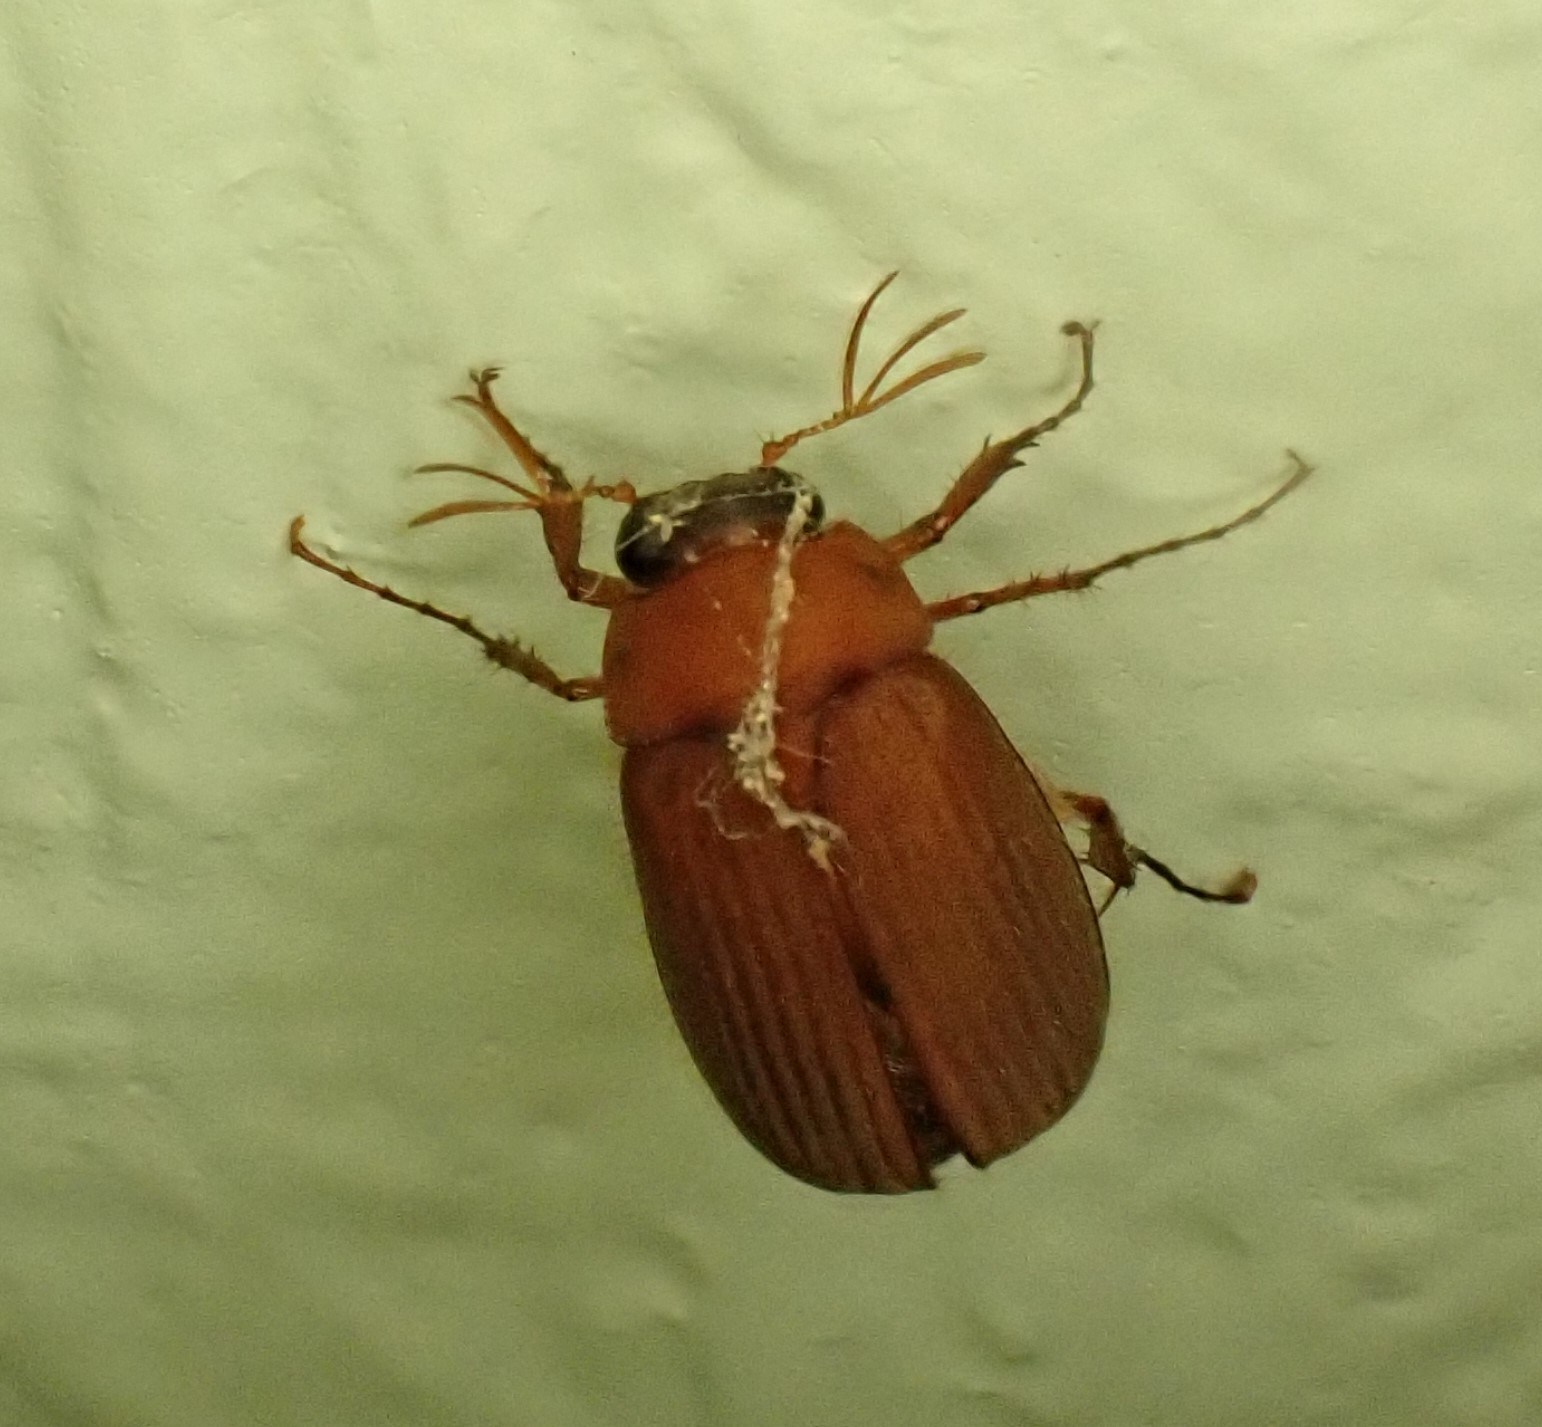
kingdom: Animalia
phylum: Arthropoda
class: Insecta
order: Coleoptera
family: Scarabaeidae
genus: Serica
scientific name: Serica brunnea
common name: Brown chafer
